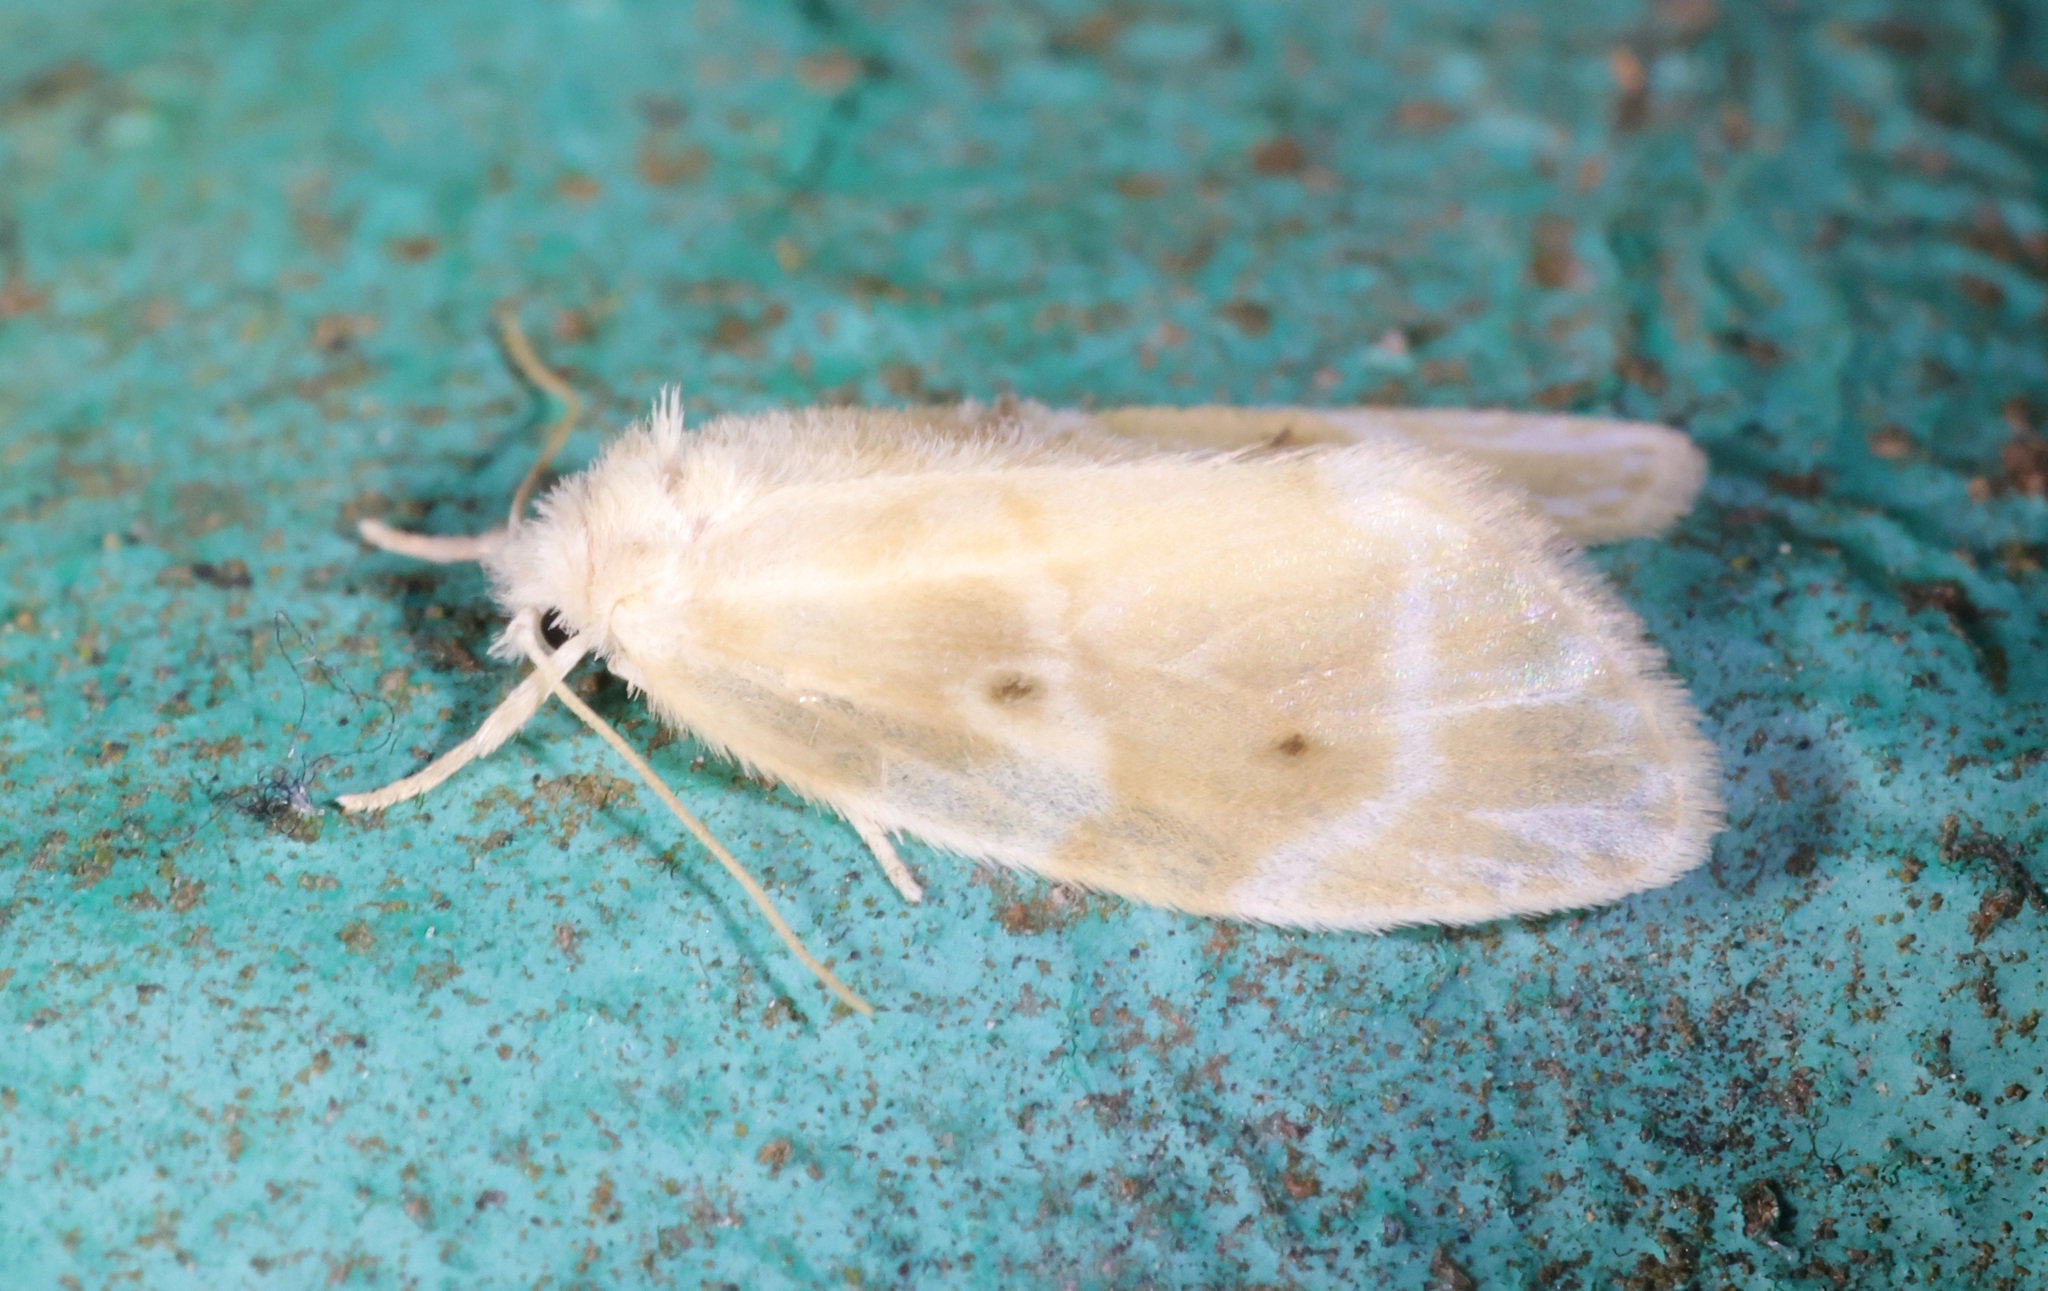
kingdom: Animalia
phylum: Arthropoda
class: Insecta
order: Lepidoptera
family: Erebidae
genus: Schistophleps
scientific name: Schistophleps bipuncta
